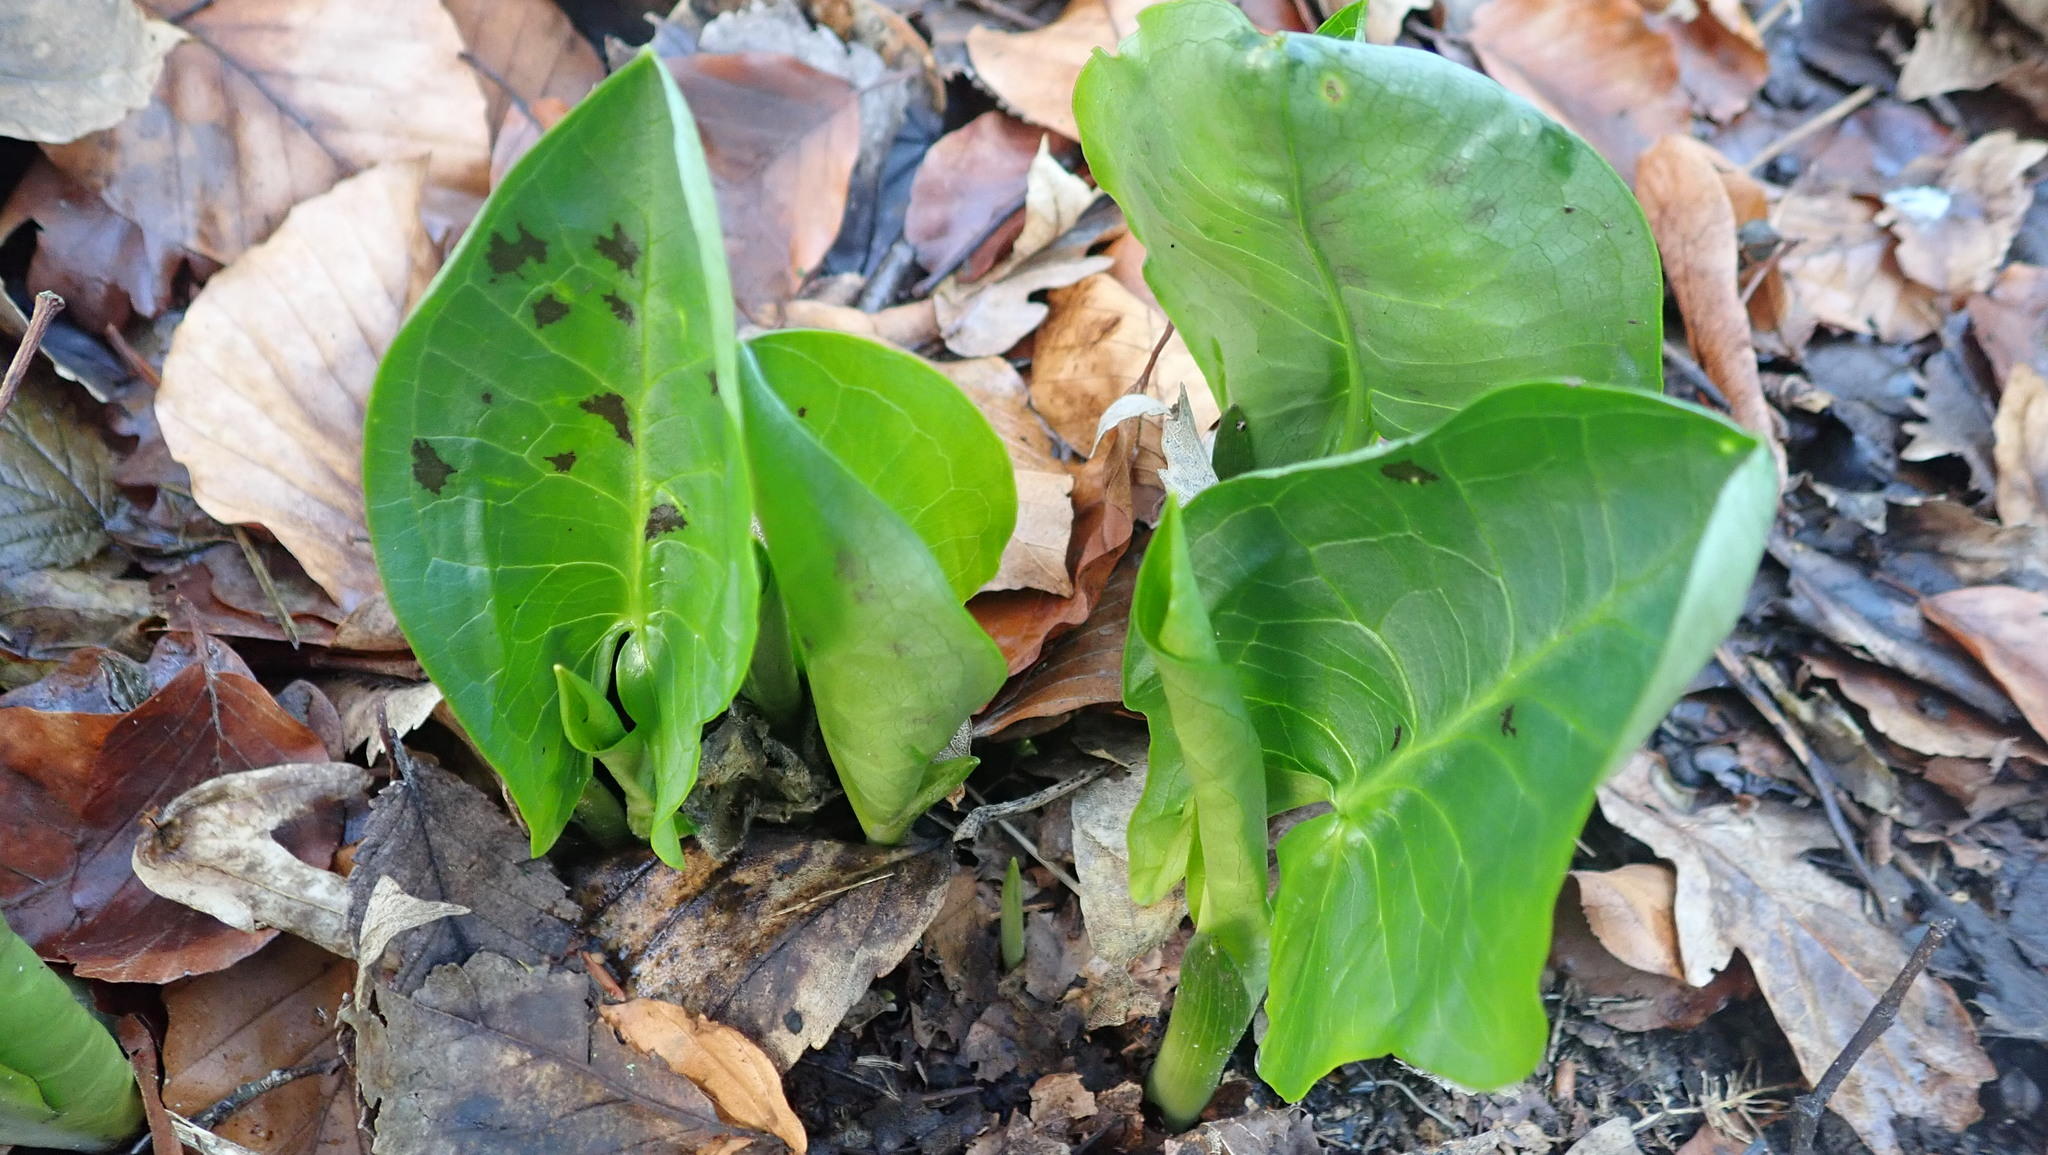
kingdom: Plantae
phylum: Tracheophyta
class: Liliopsida
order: Alismatales
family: Araceae
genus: Arum
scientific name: Arum maculatum
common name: Lords-and-ladies
